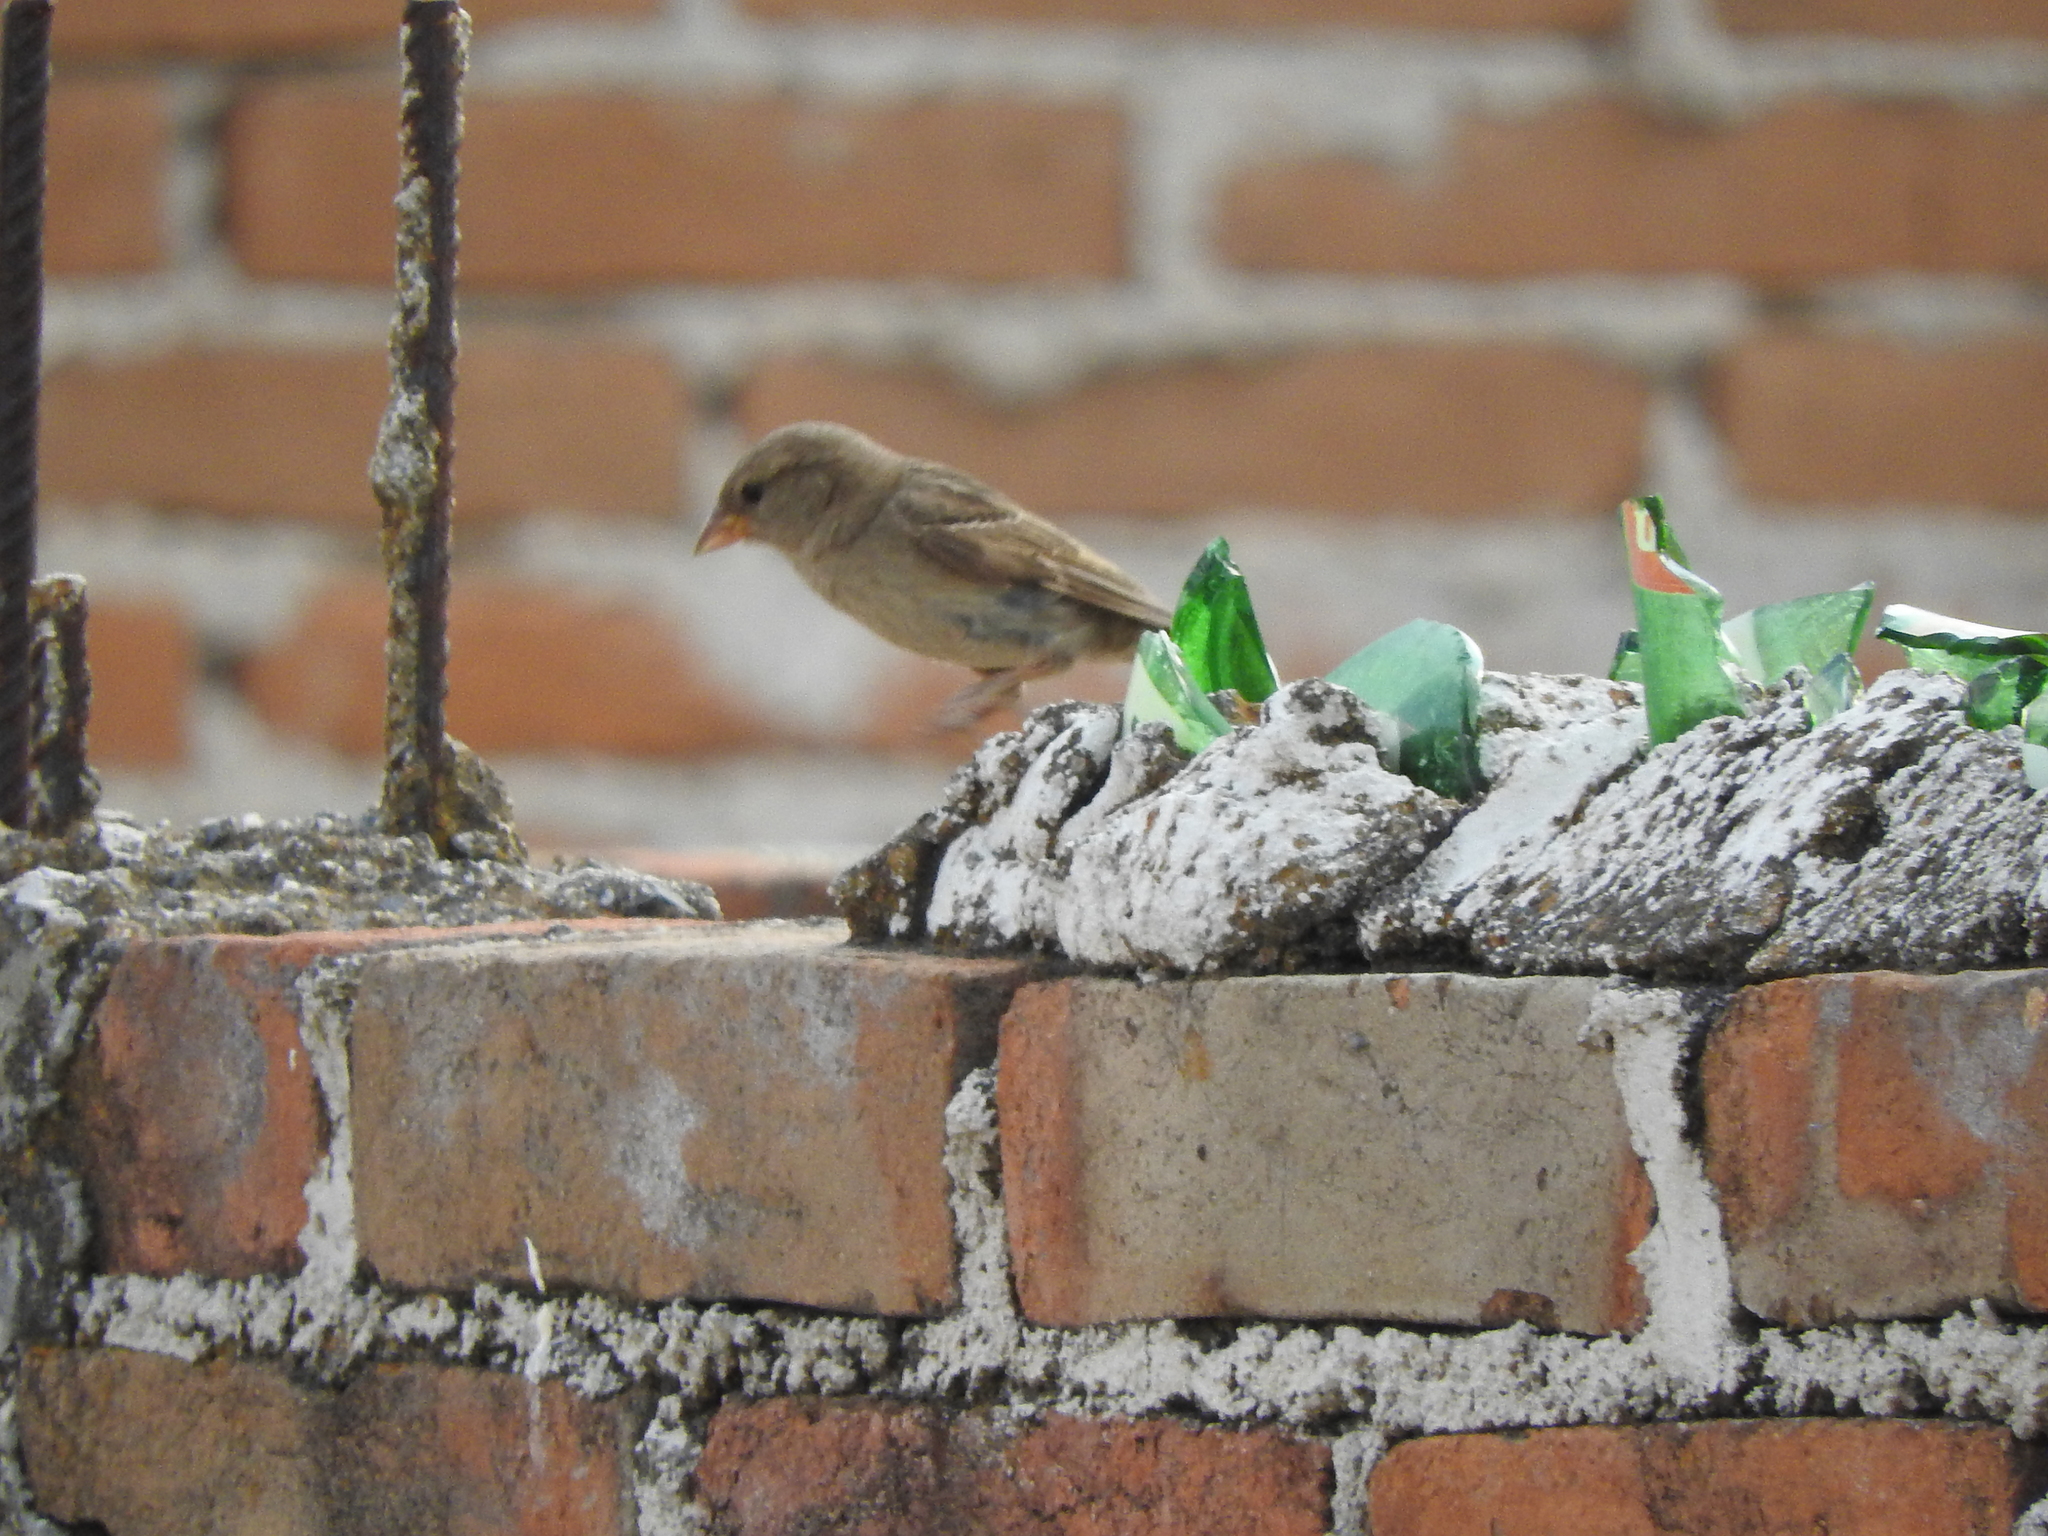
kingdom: Animalia
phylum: Chordata
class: Aves
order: Passeriformes
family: Passeridae
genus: Passer
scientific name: Passer domesticus
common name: House sparrow
